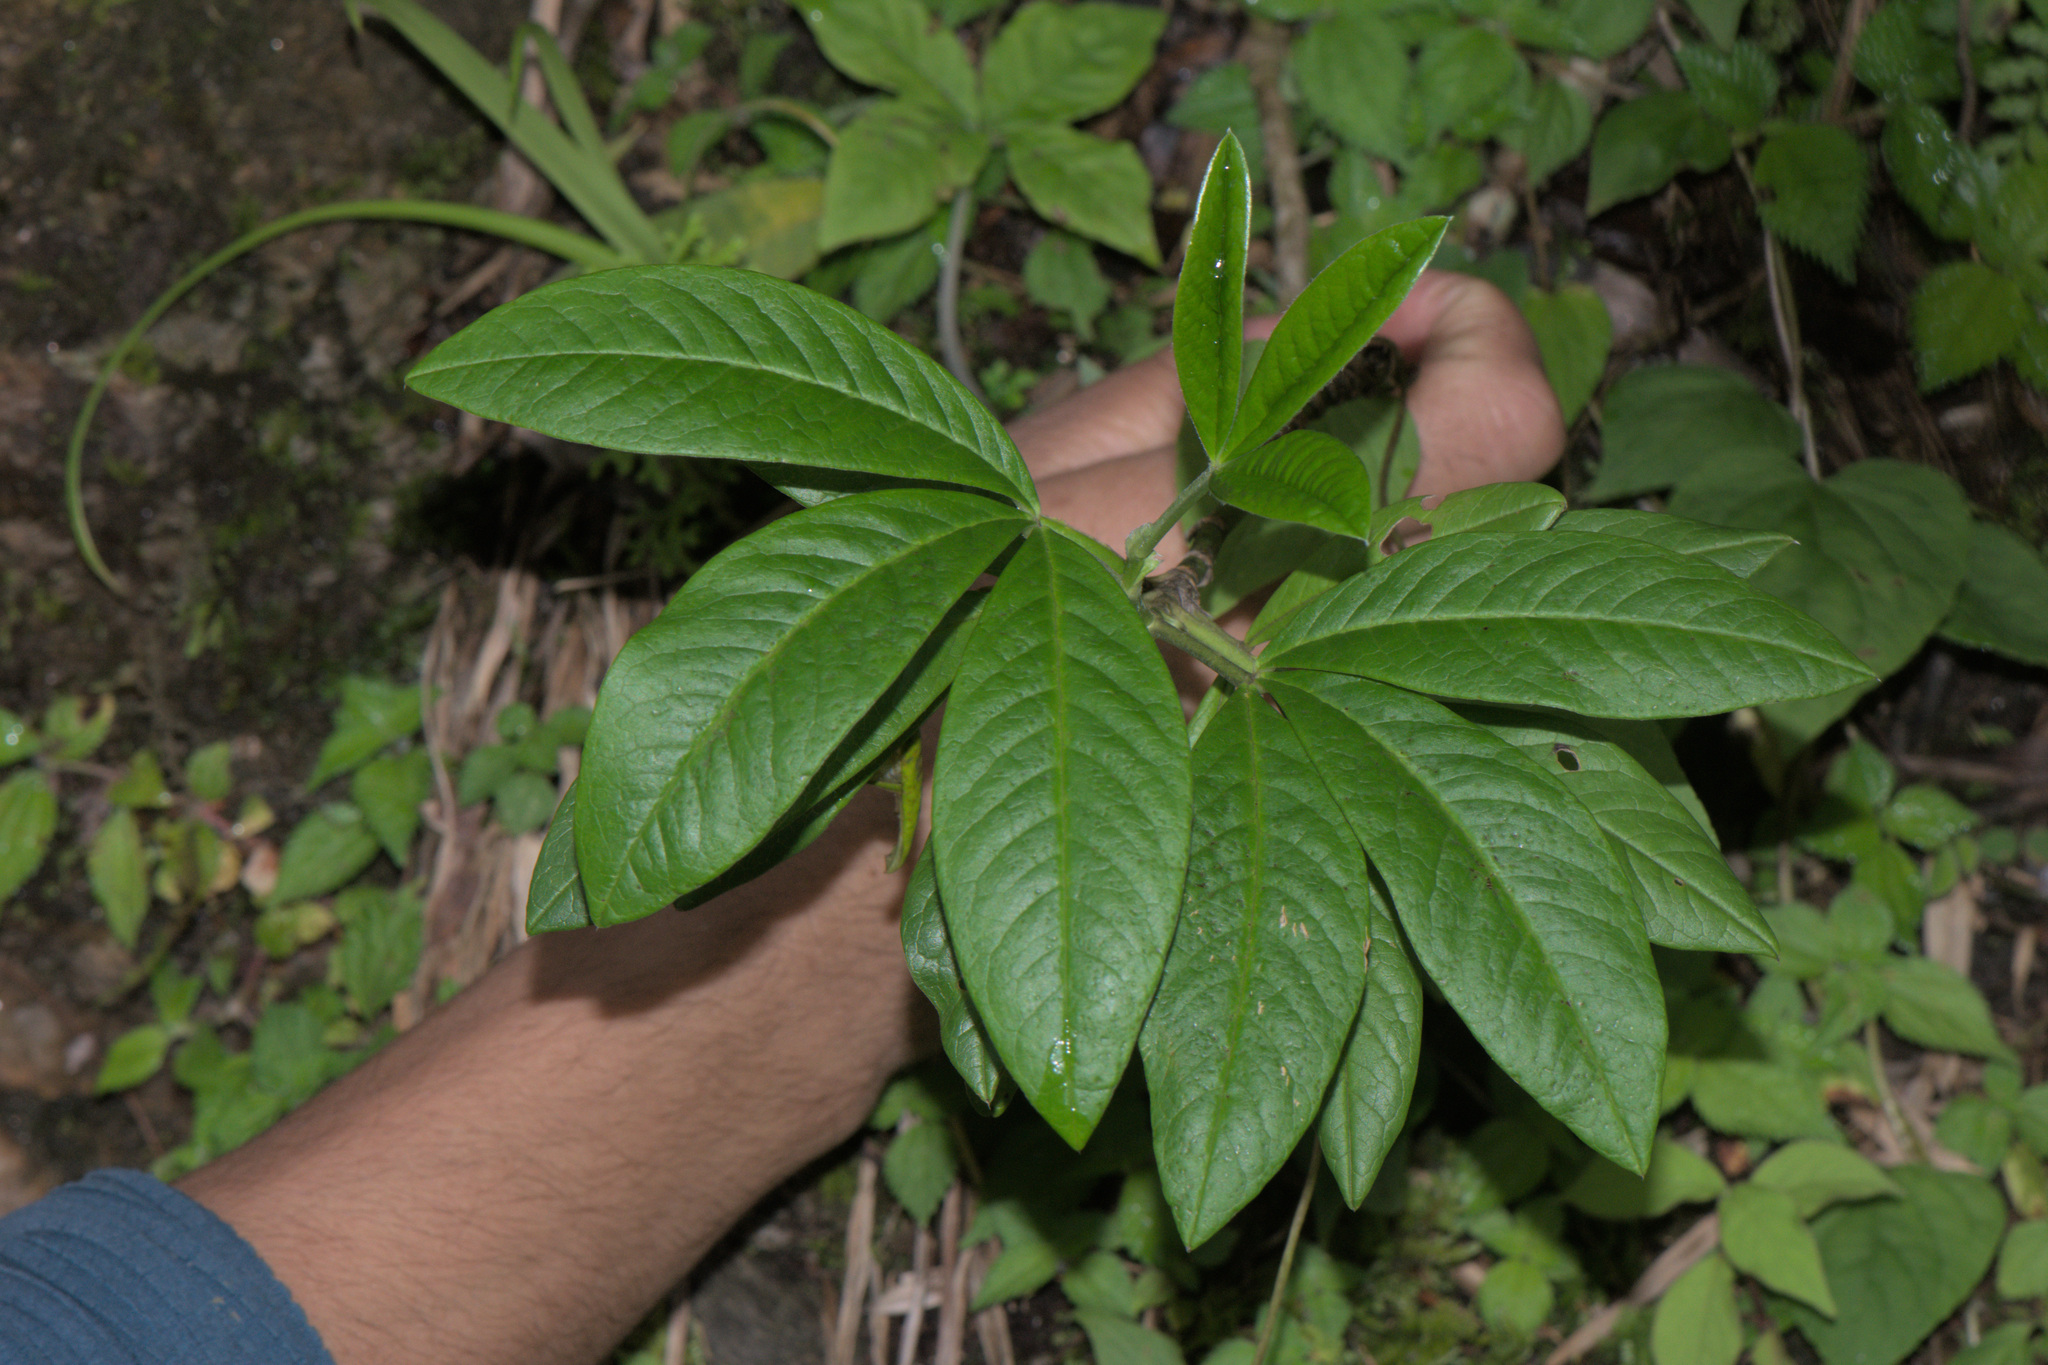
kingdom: Plantae
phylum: Tracheophyta
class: Magnoliopsida
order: Fabales
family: Fabaceae
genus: Piptanthus
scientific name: Piptanthus nepalensis
